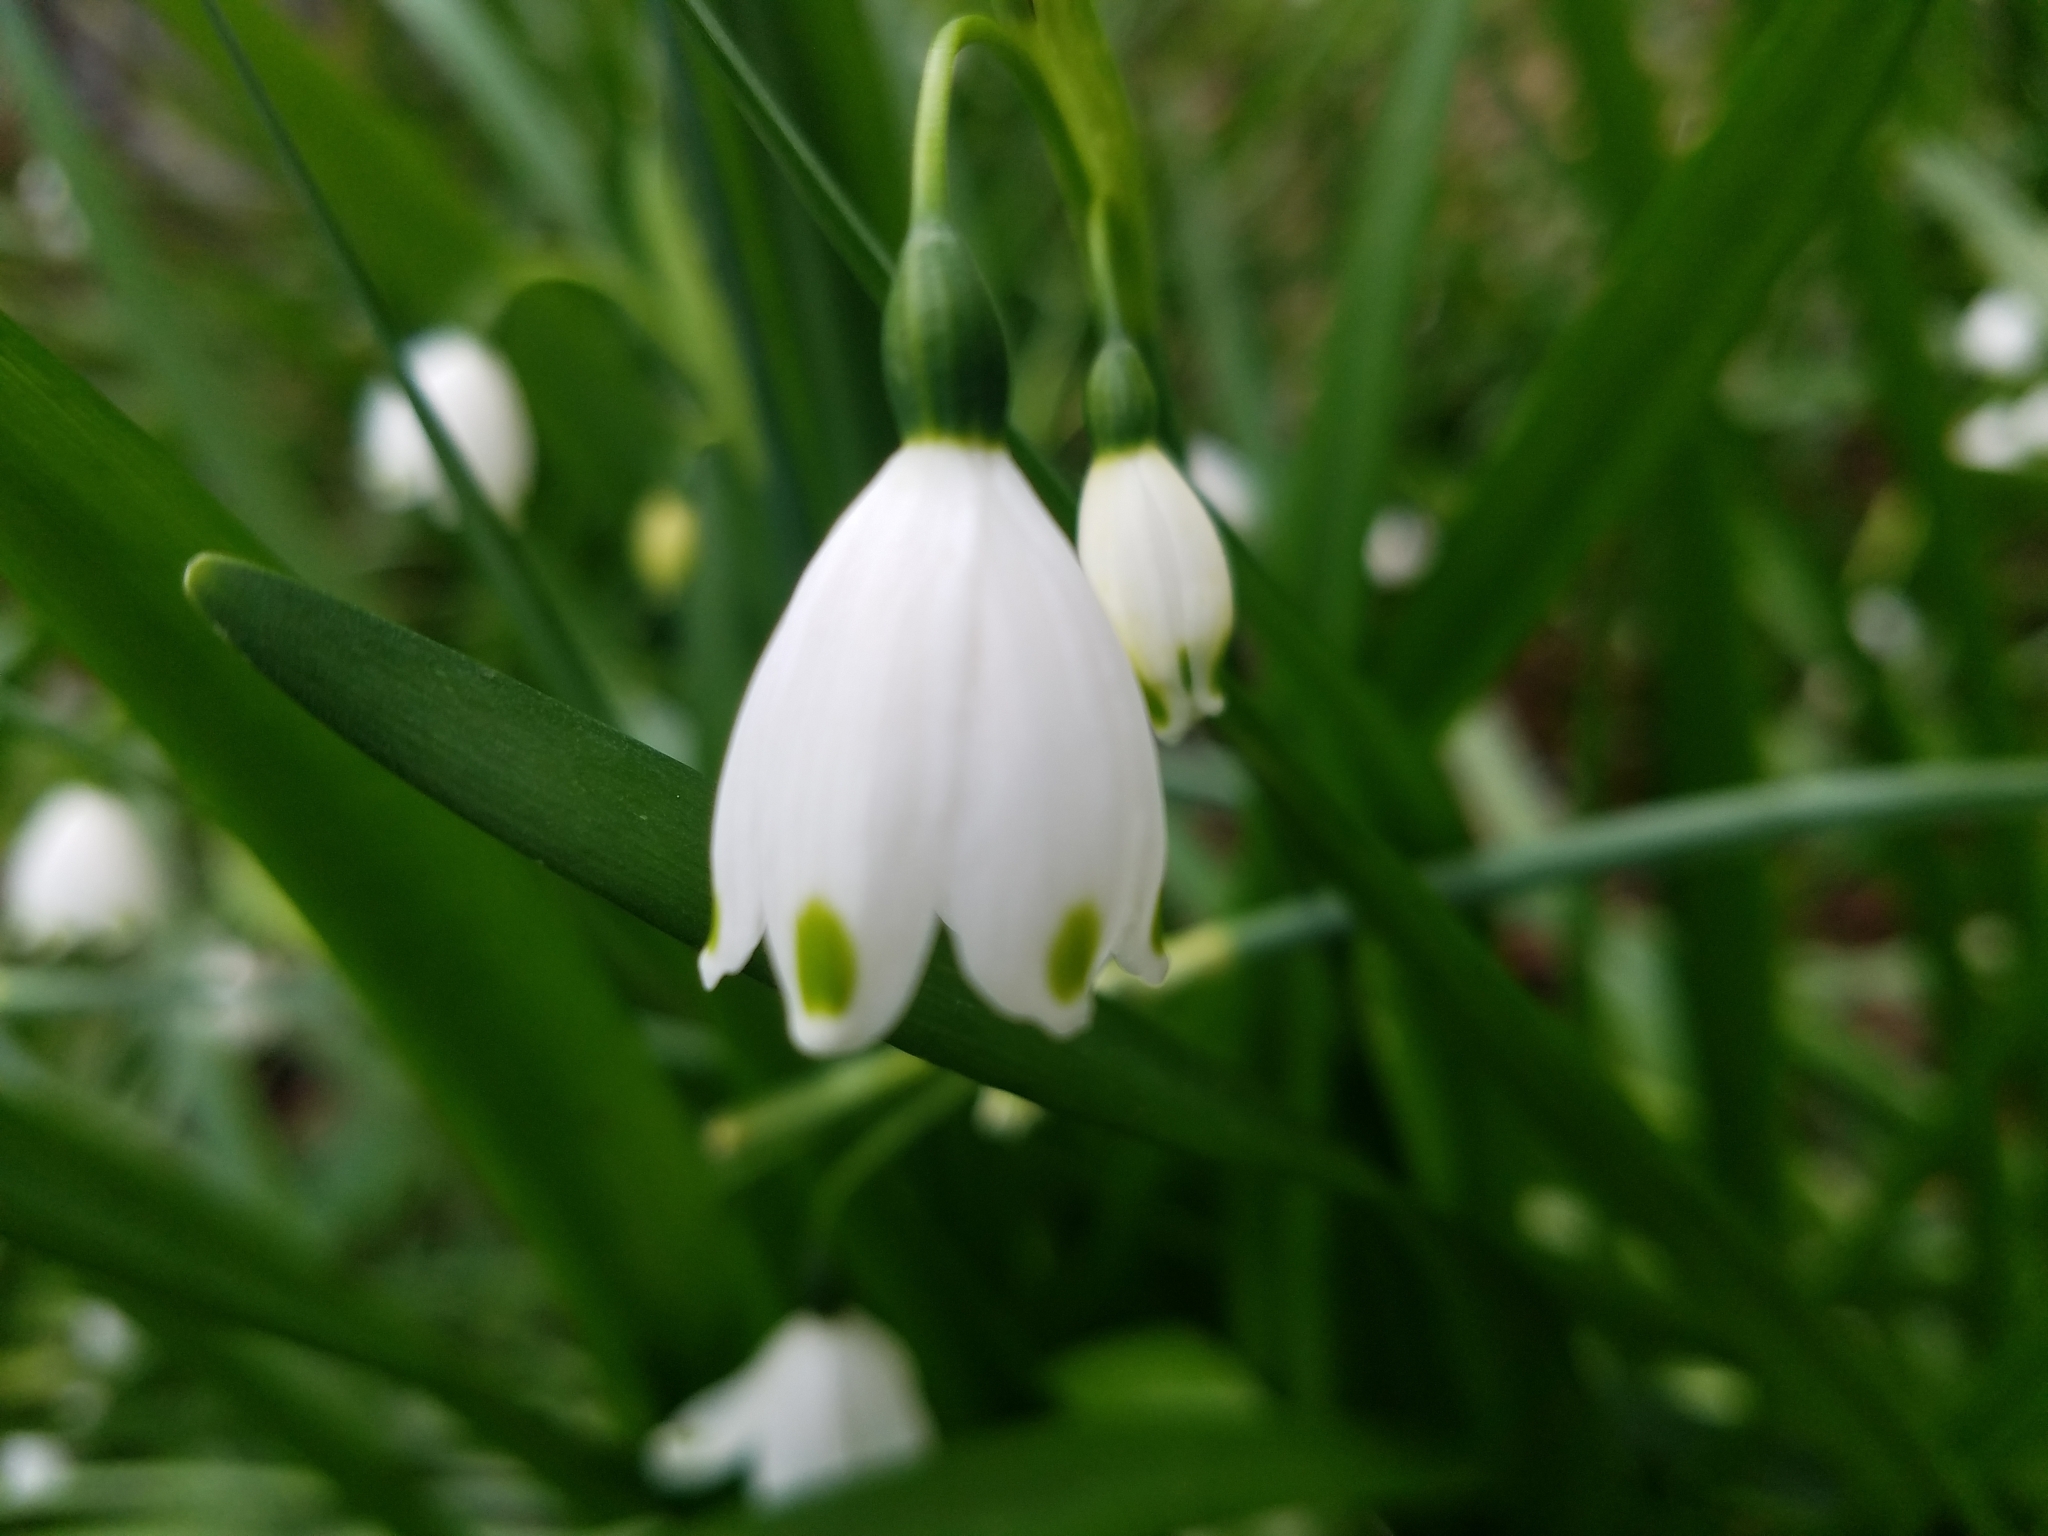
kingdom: Plantae
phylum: Tracheophyta
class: Liliopsida
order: Asparagales
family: Amaryllidaceae
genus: Leucojum
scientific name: Leucojum aestivum
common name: Summer snowflake
